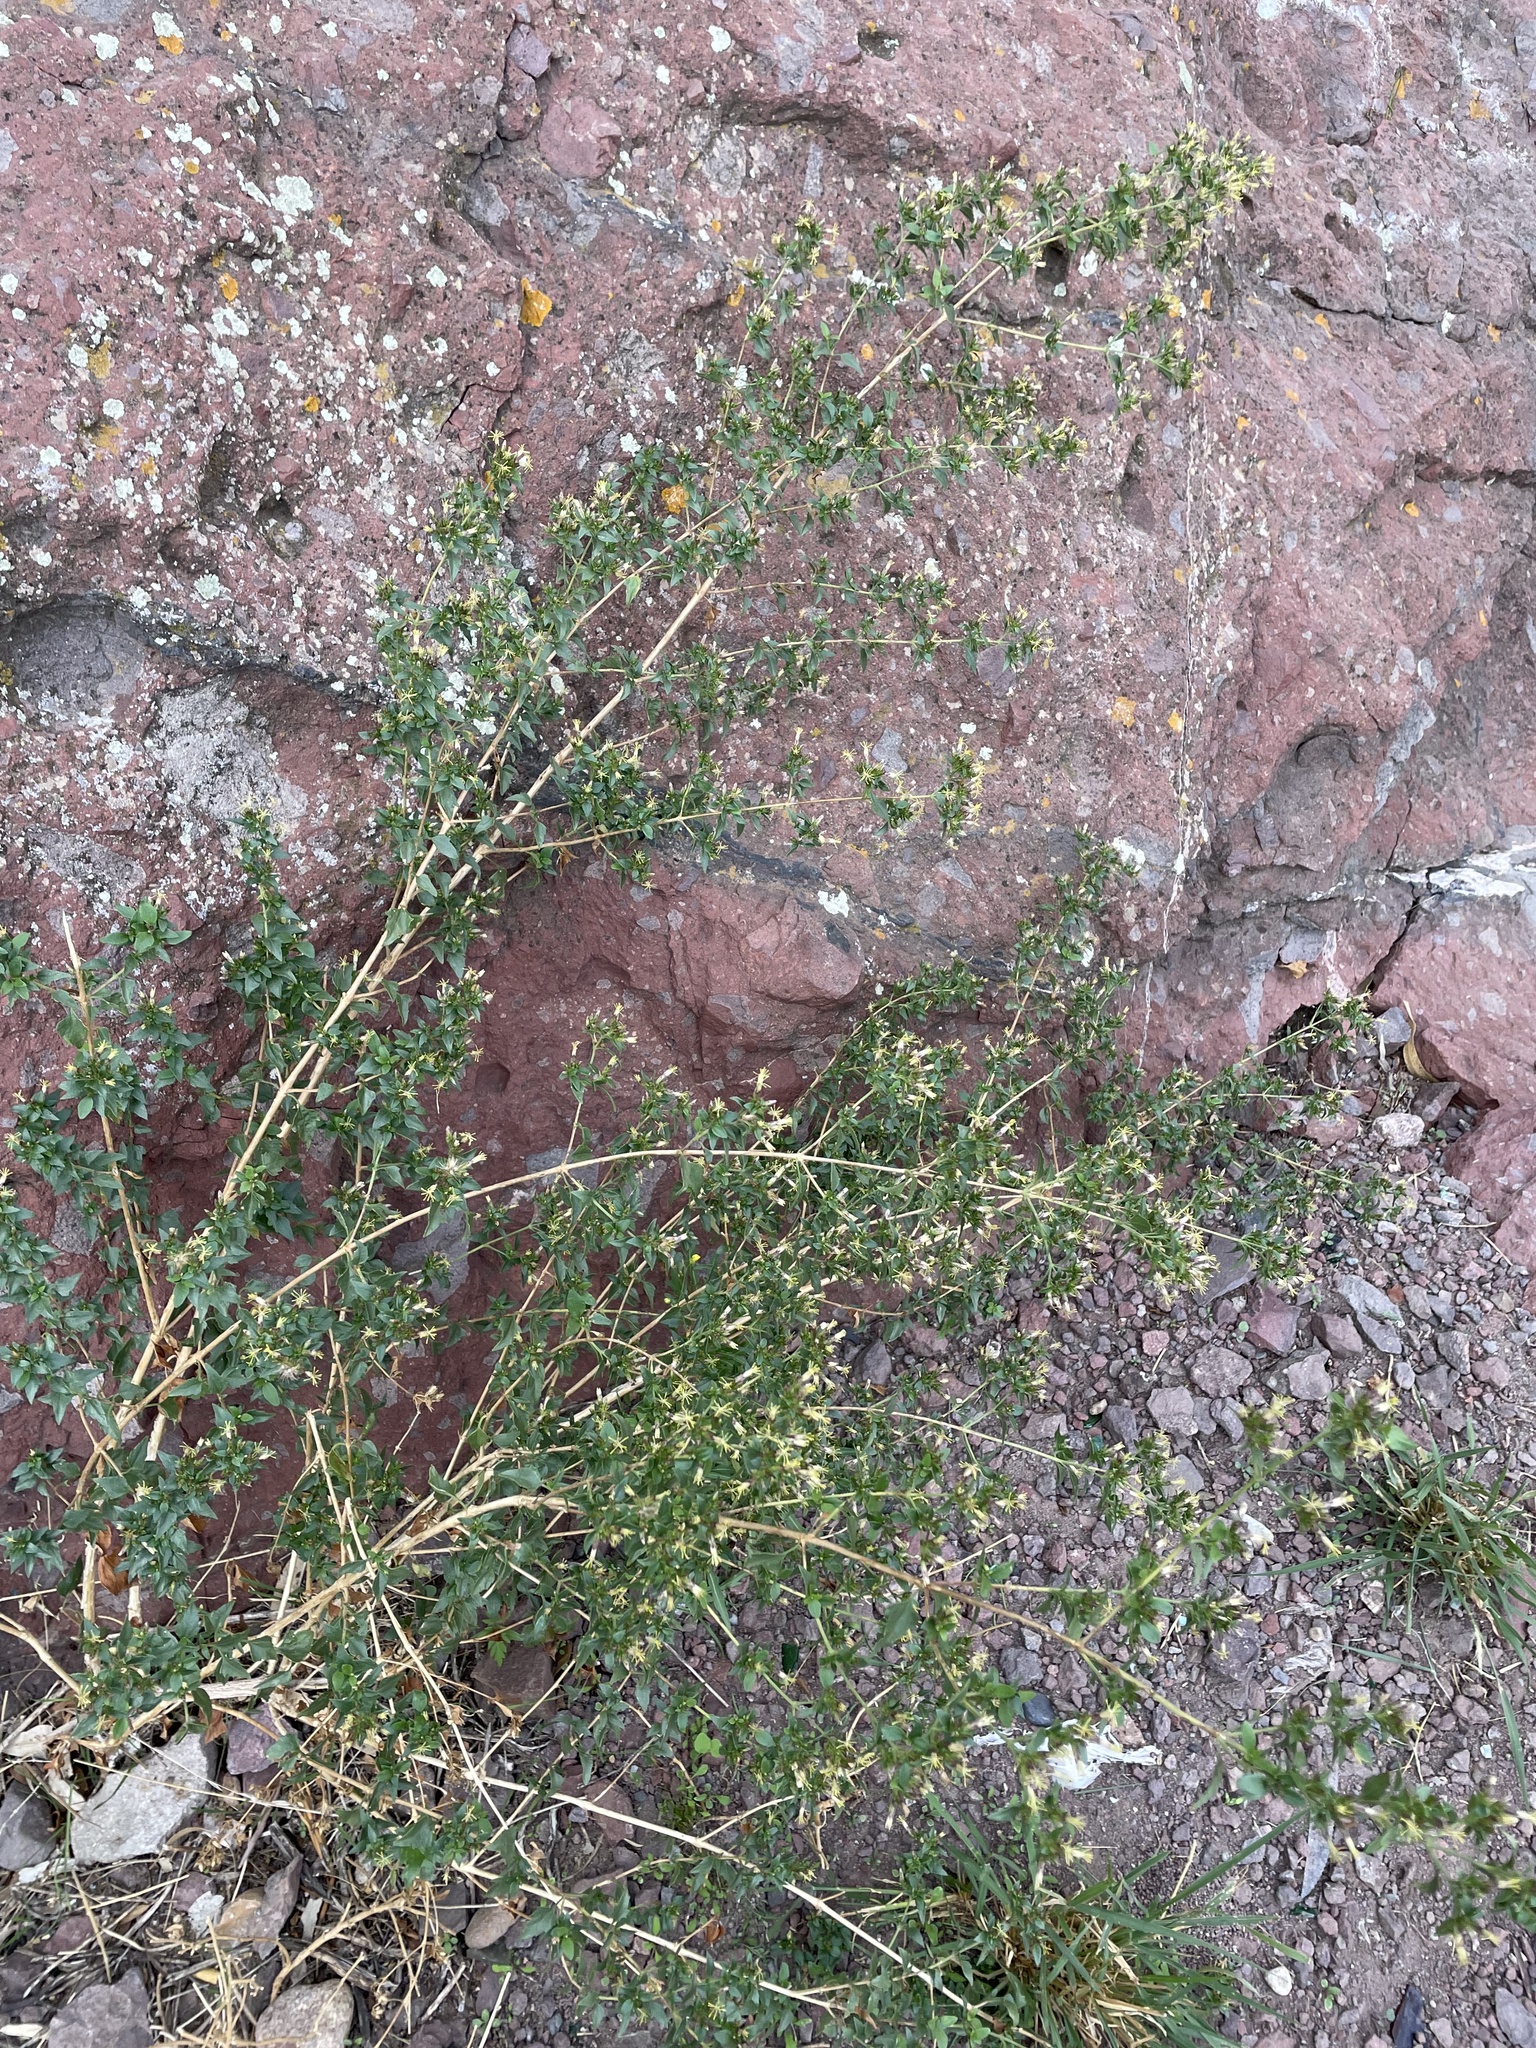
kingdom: Plantae
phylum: Tracheophyta
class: Magnoliopsida
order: Asterales
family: Asteraceae
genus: Austrobrickellia
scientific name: Austrobrickellia patens
